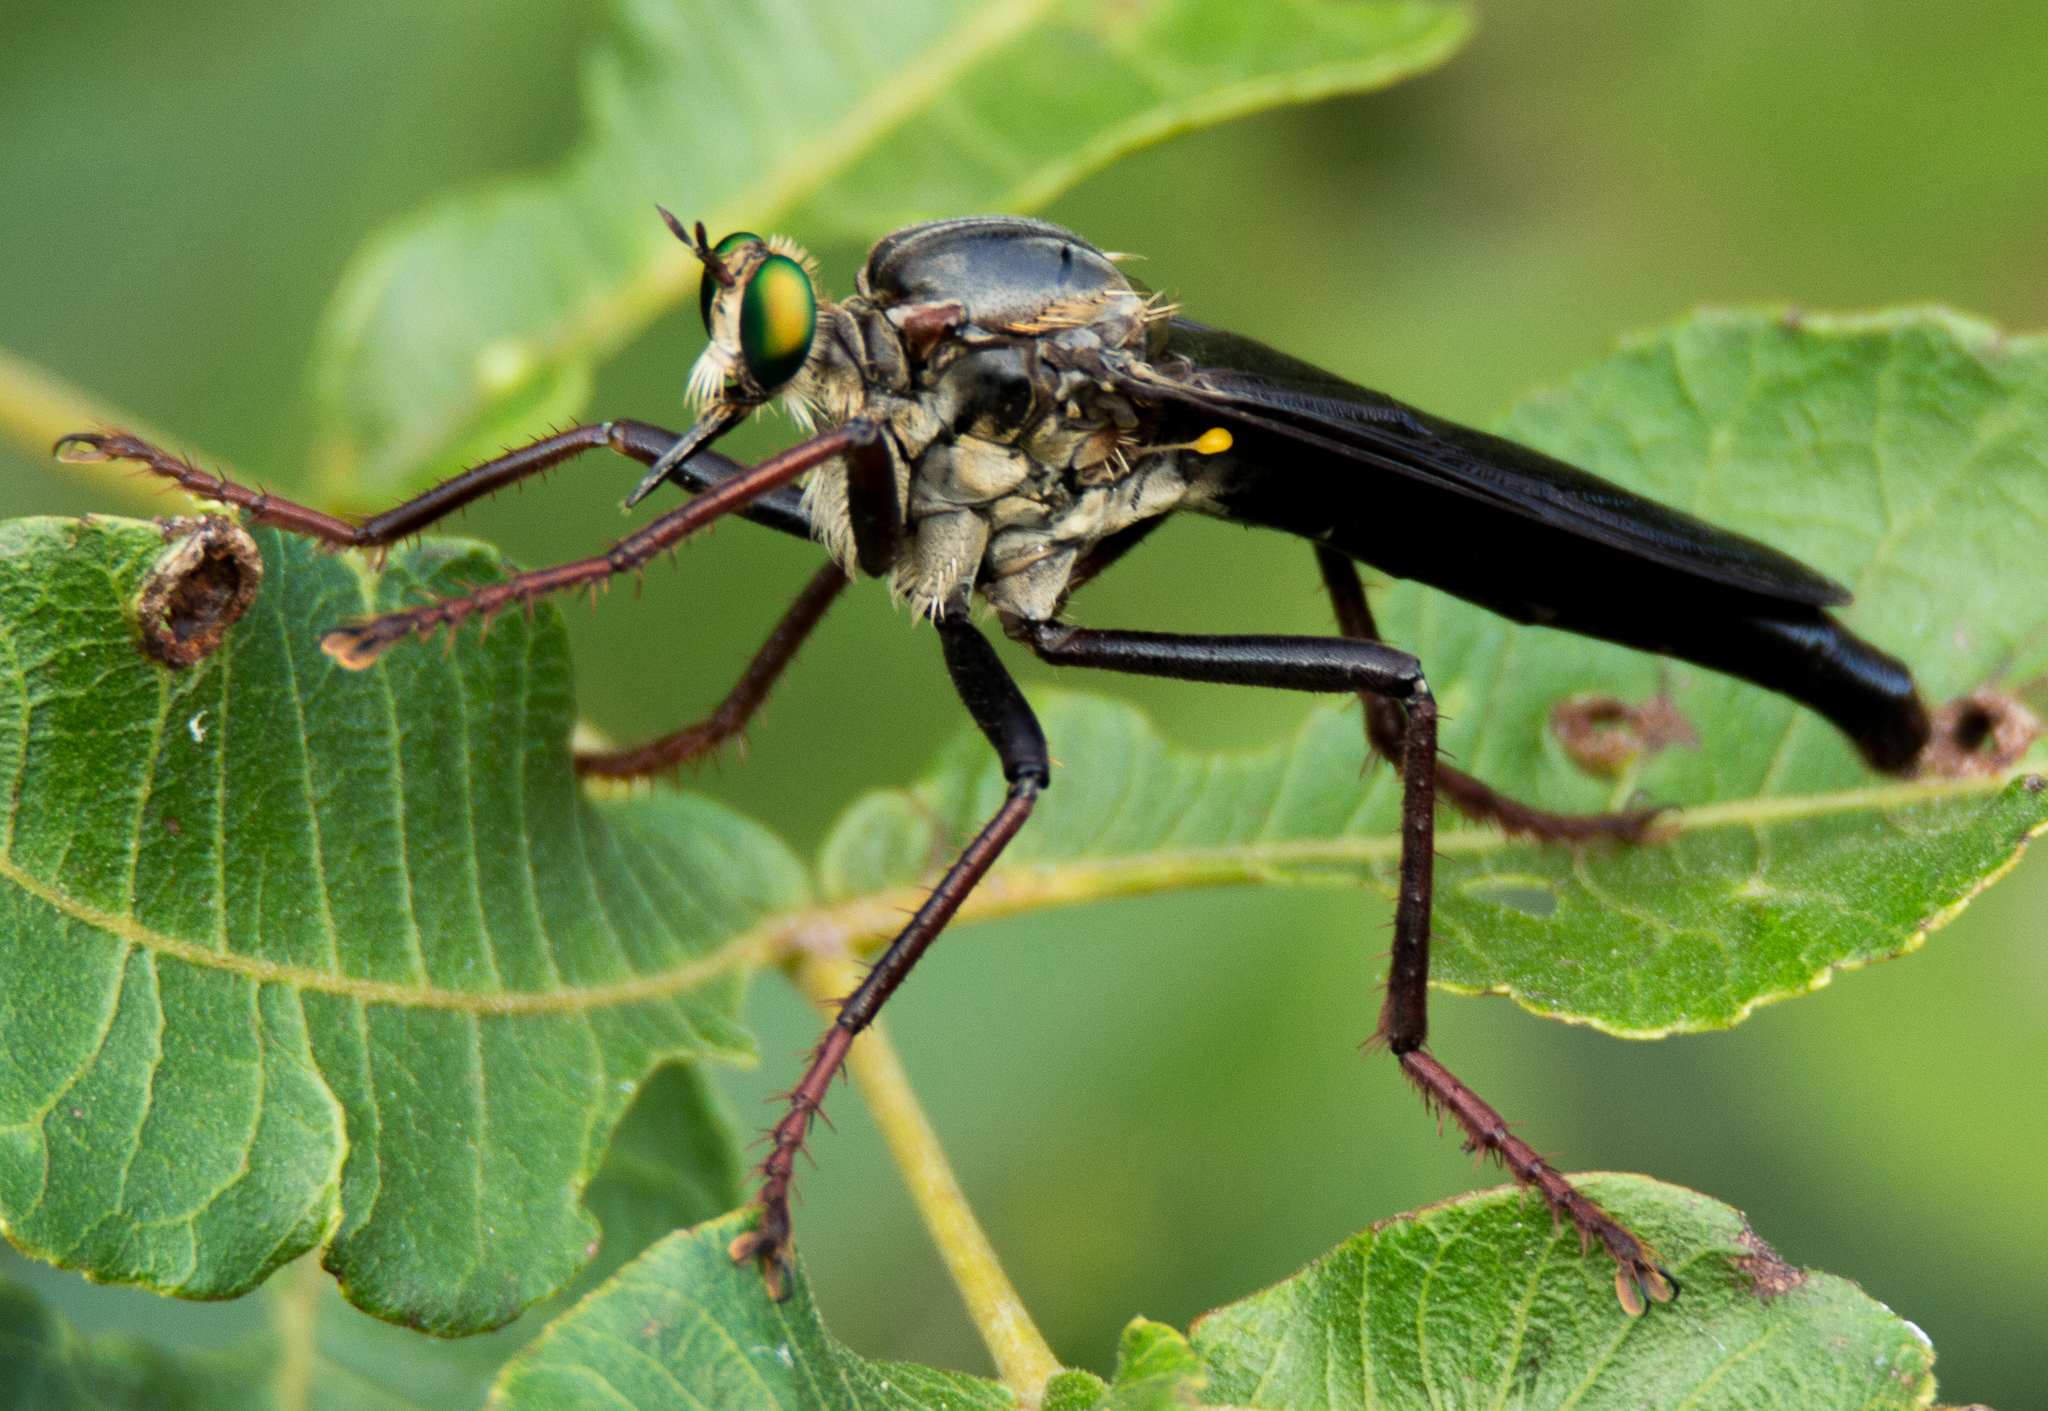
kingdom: Animalia
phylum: Arthropoda
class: Insecta
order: Diptera
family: Asilidae
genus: Microstylum
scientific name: Microstylum morosum
